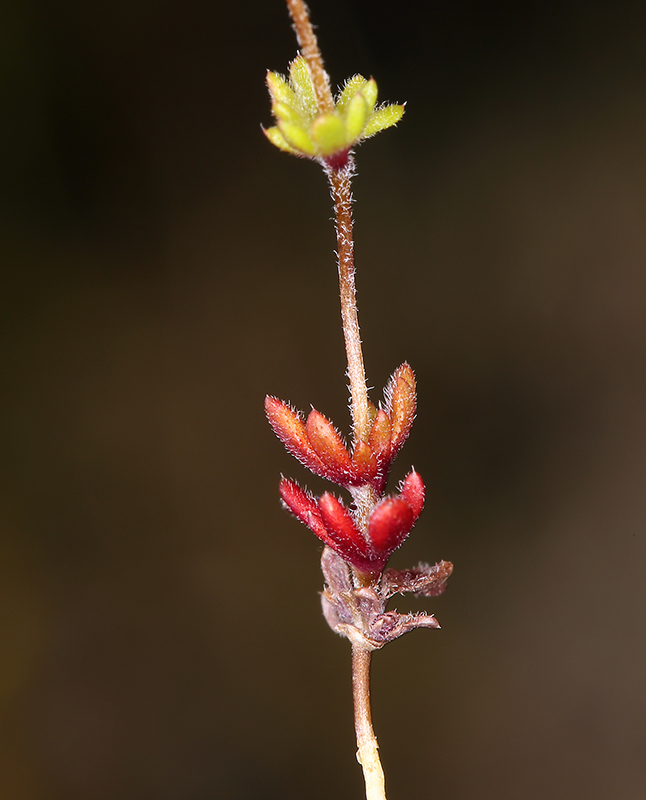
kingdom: Plantae
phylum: Tracheophyta
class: Magnoliopsida
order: Ericales
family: Polemoniaceae
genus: Leptosiphon
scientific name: Leptosiphon chrysanthus
